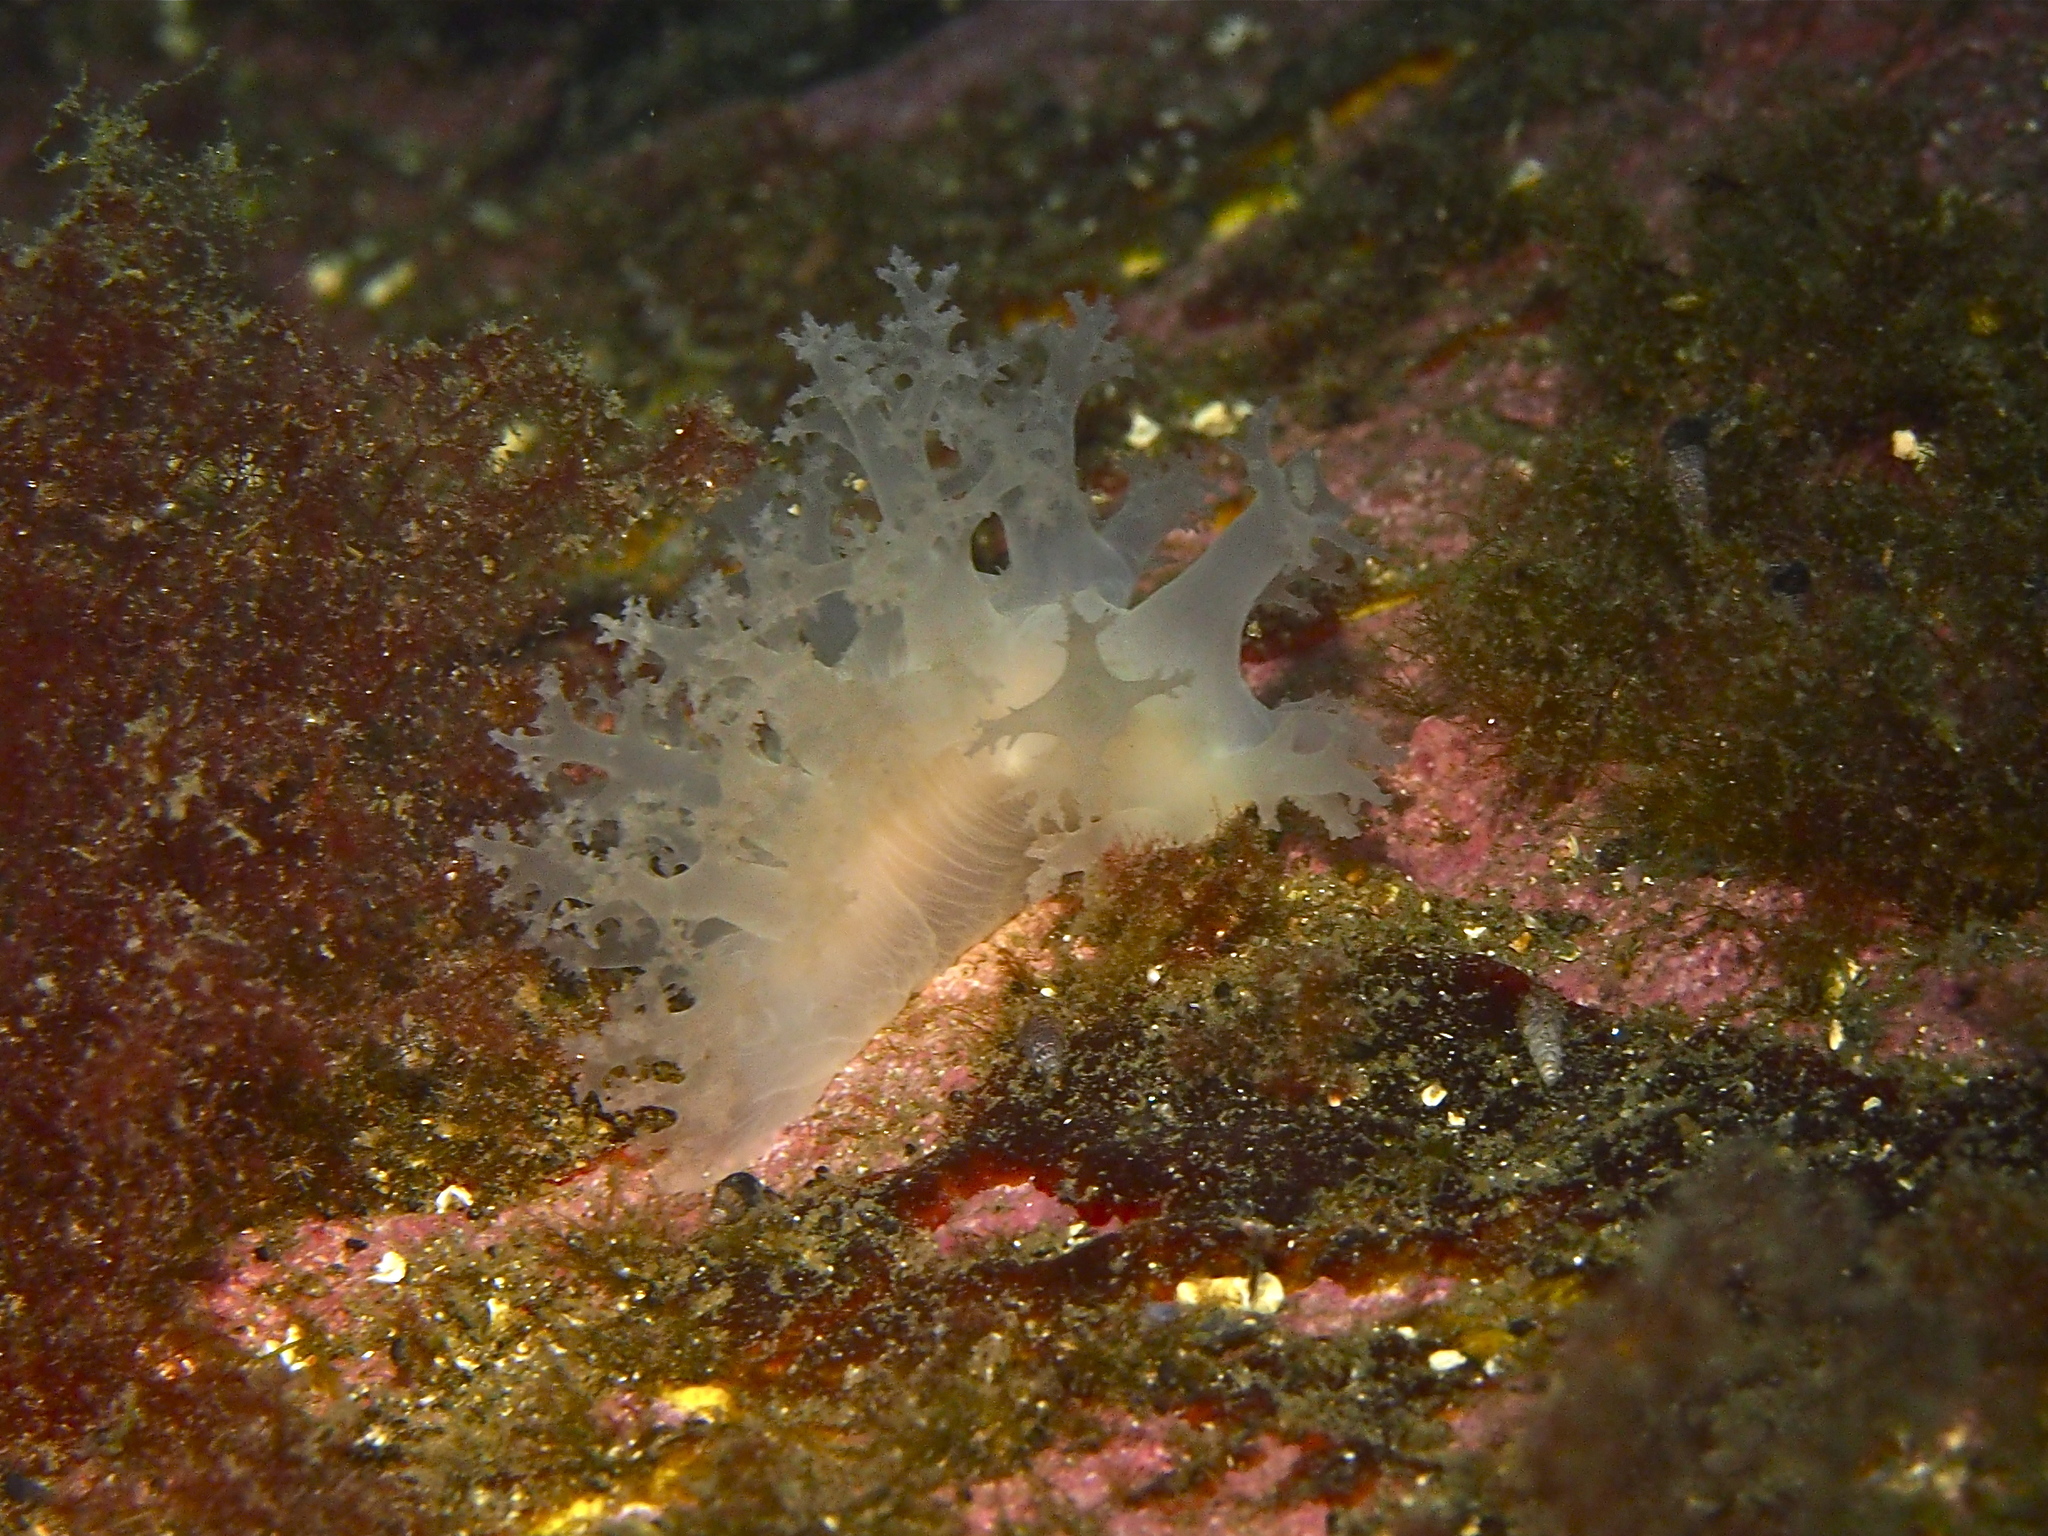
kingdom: Animalia
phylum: Mollusca
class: Gastropoda
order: Nudibranchia
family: Dendronotidae
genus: Dendronotus
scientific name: Dendronotus lacteus
